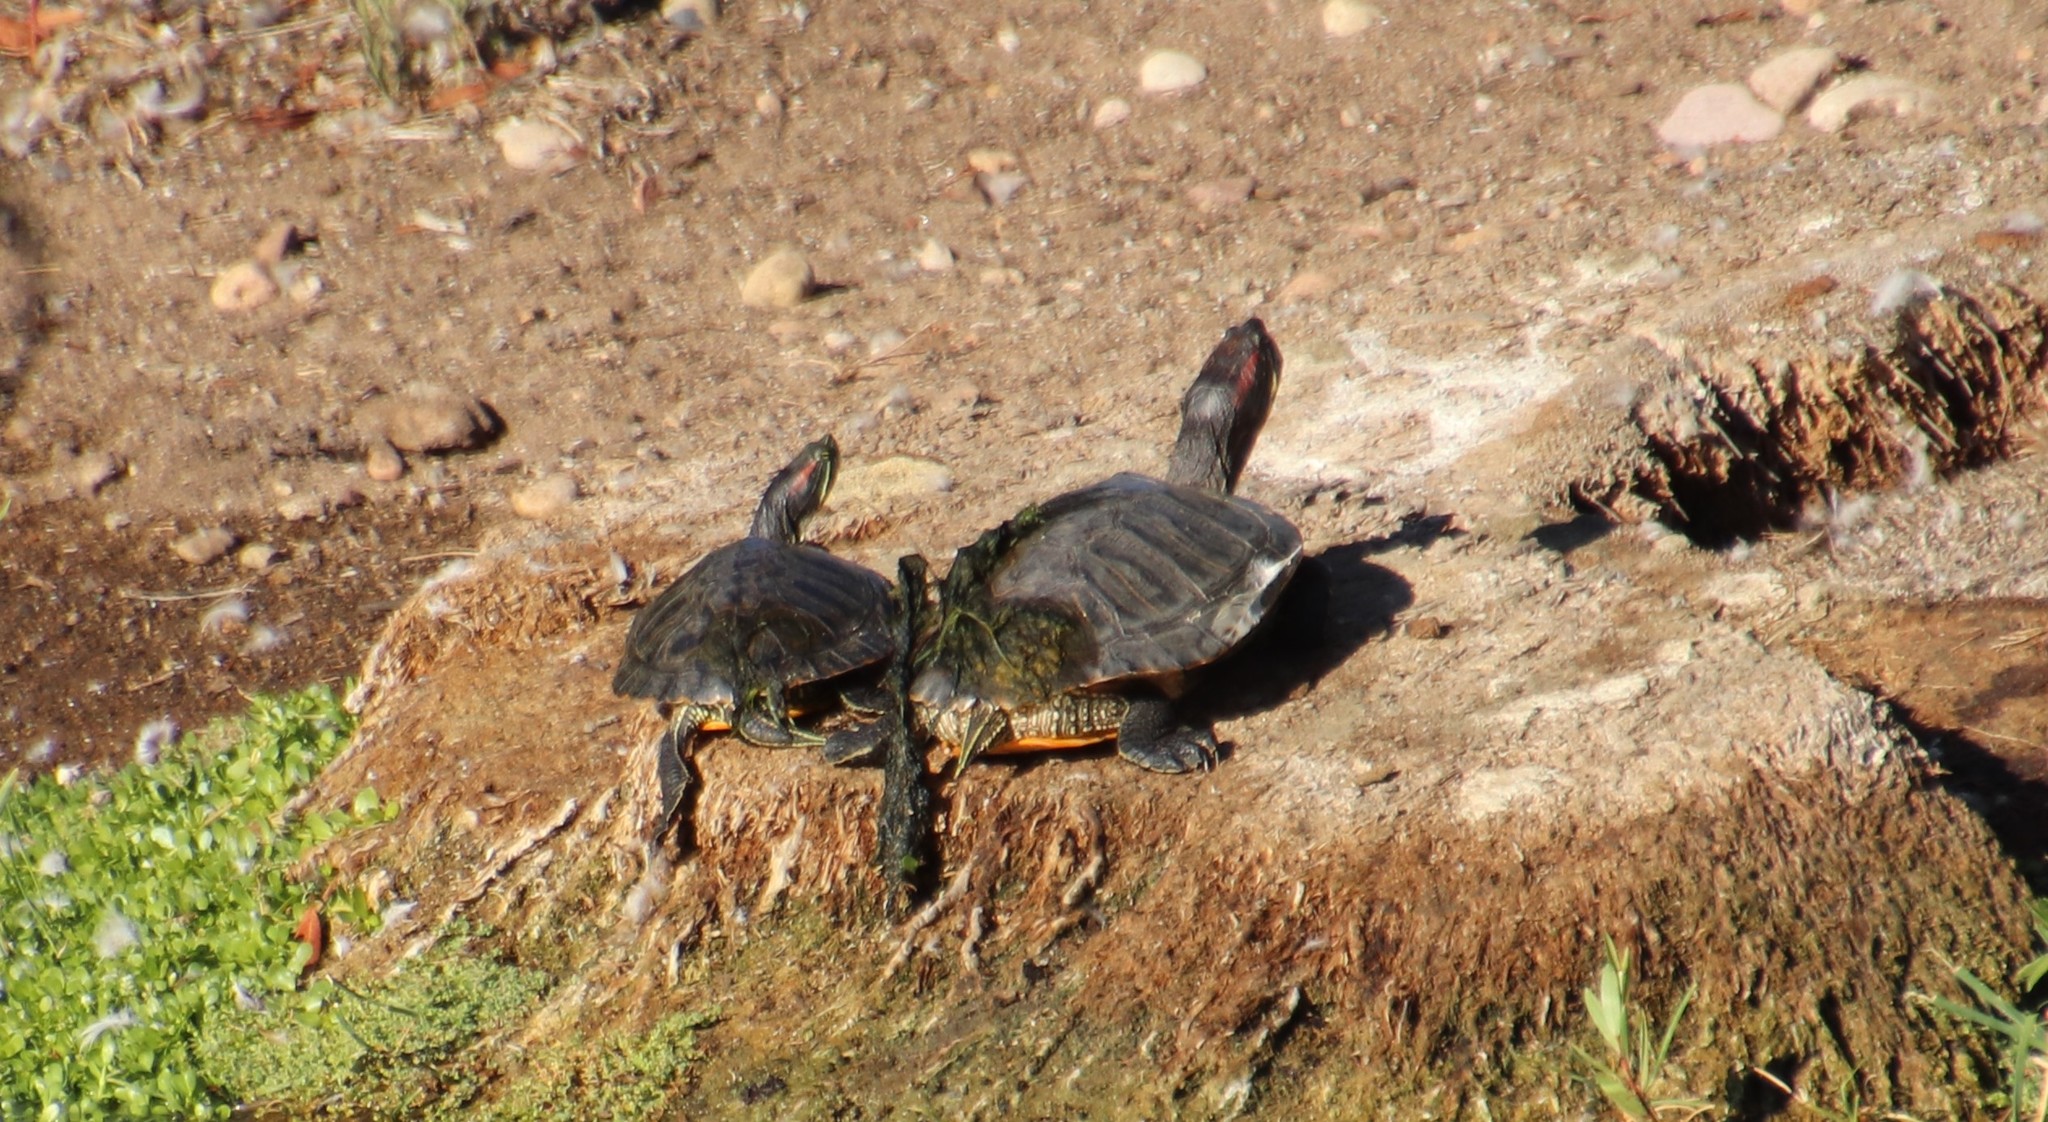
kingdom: Animalia
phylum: Chordata
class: Testudines
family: Emydidae
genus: Trachemys
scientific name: Trachemys scripta
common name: Slider
